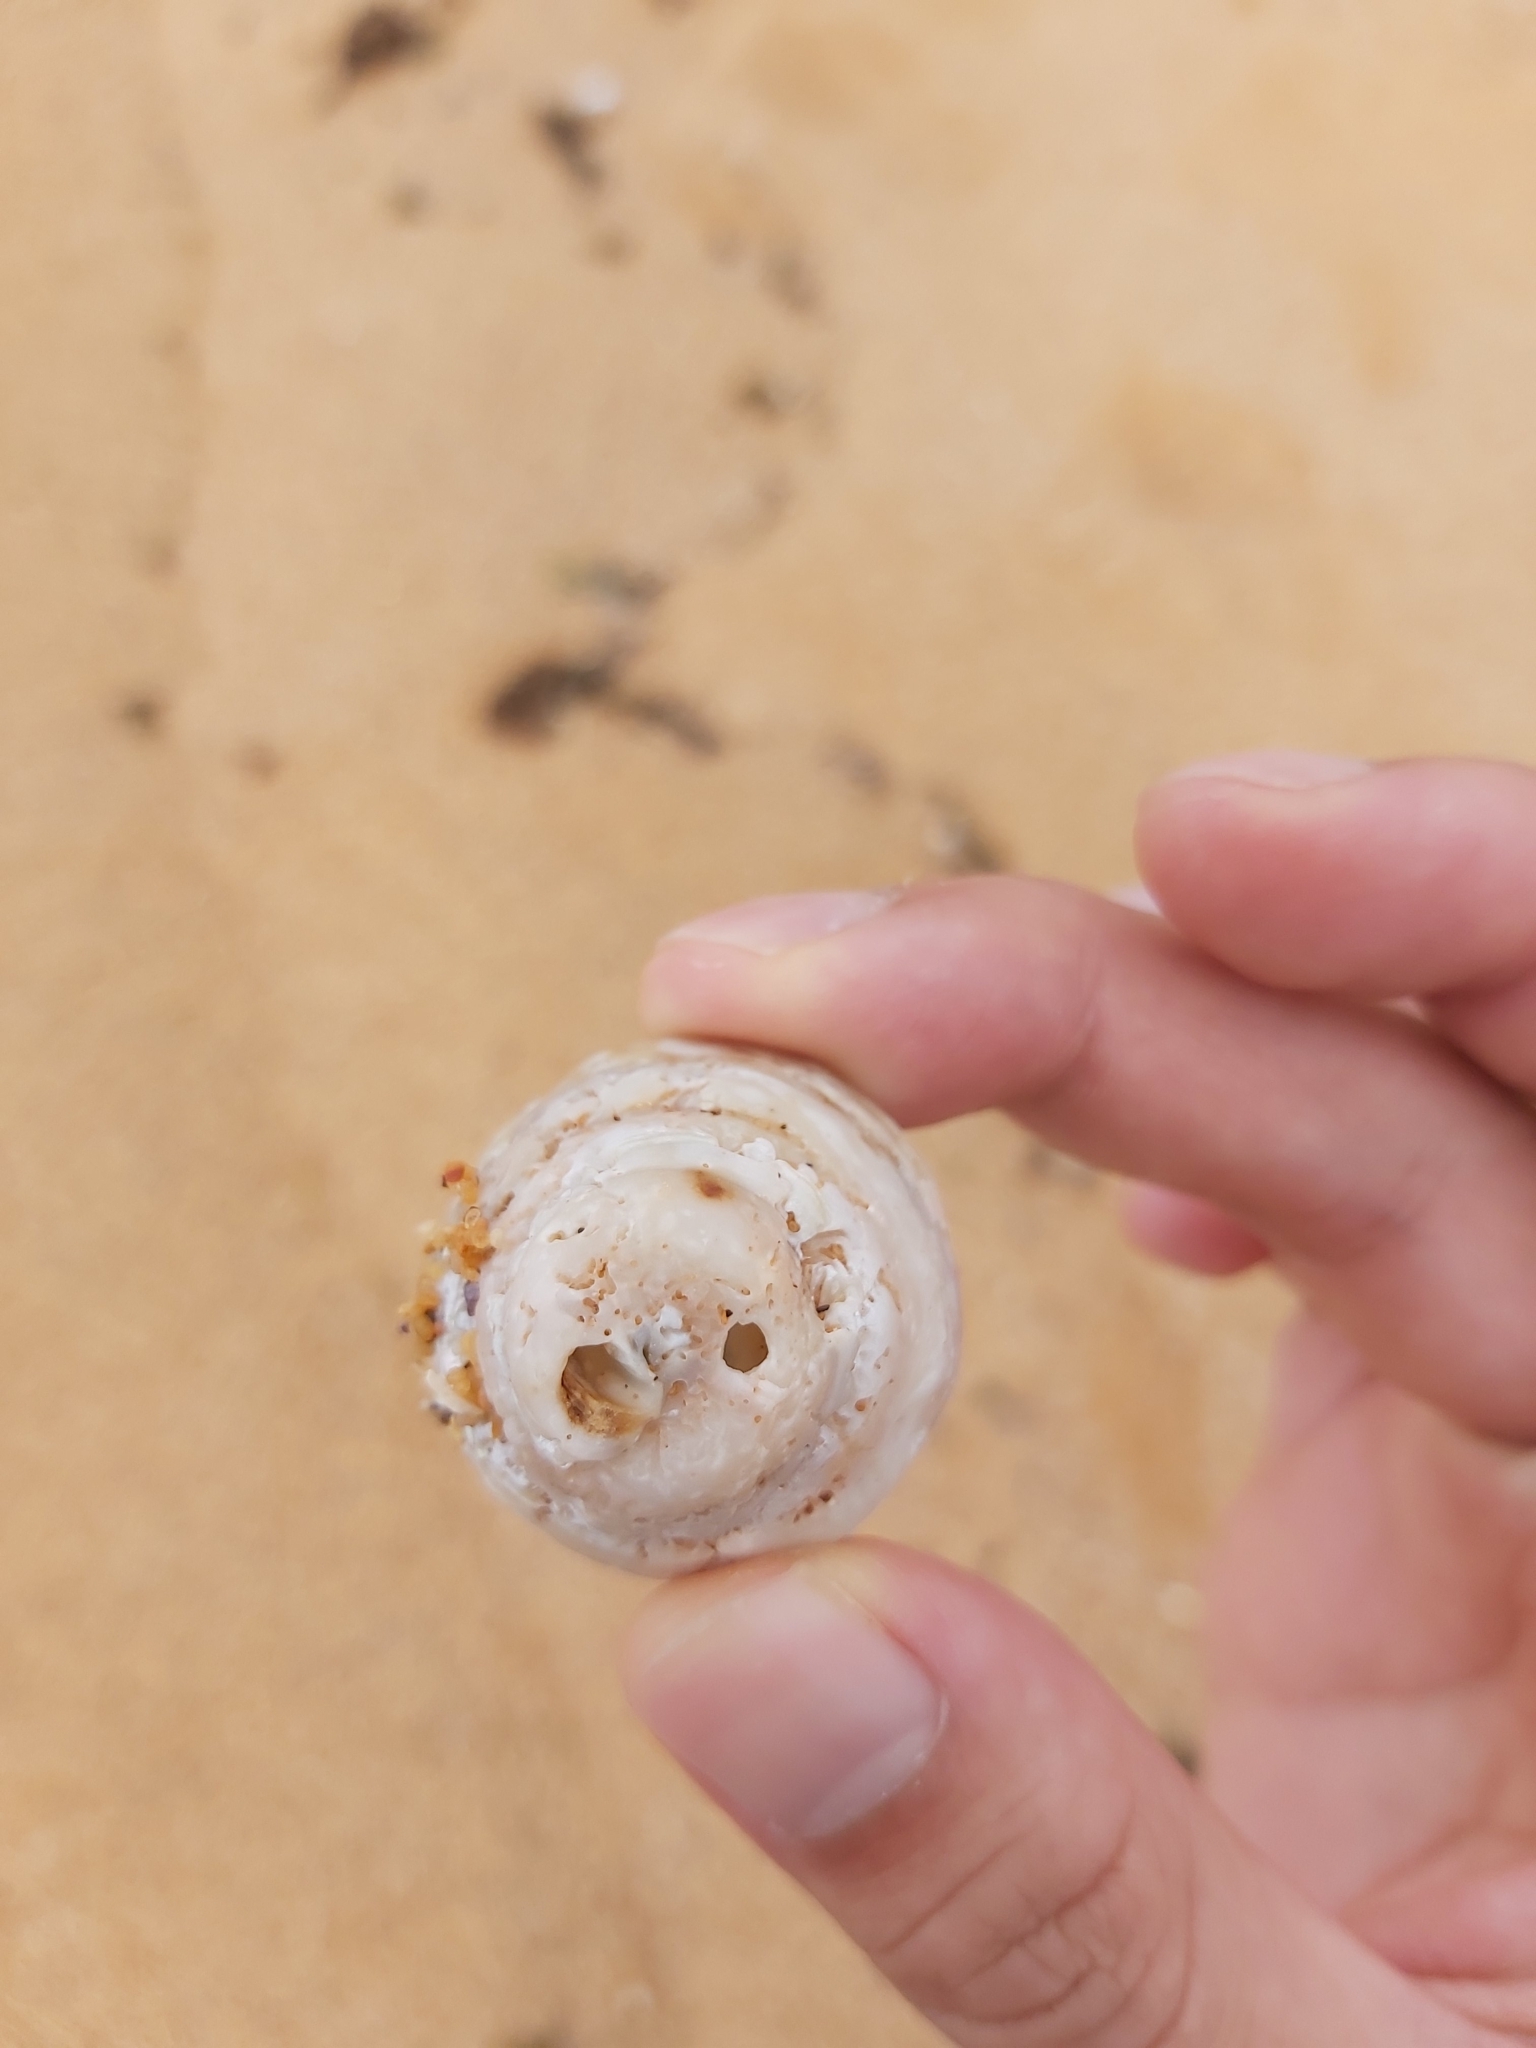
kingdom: Animalia
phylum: Mollusca
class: Gastropoda
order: Trochida
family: Turbinidae
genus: Astralium
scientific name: Astralium tentoriiforme
